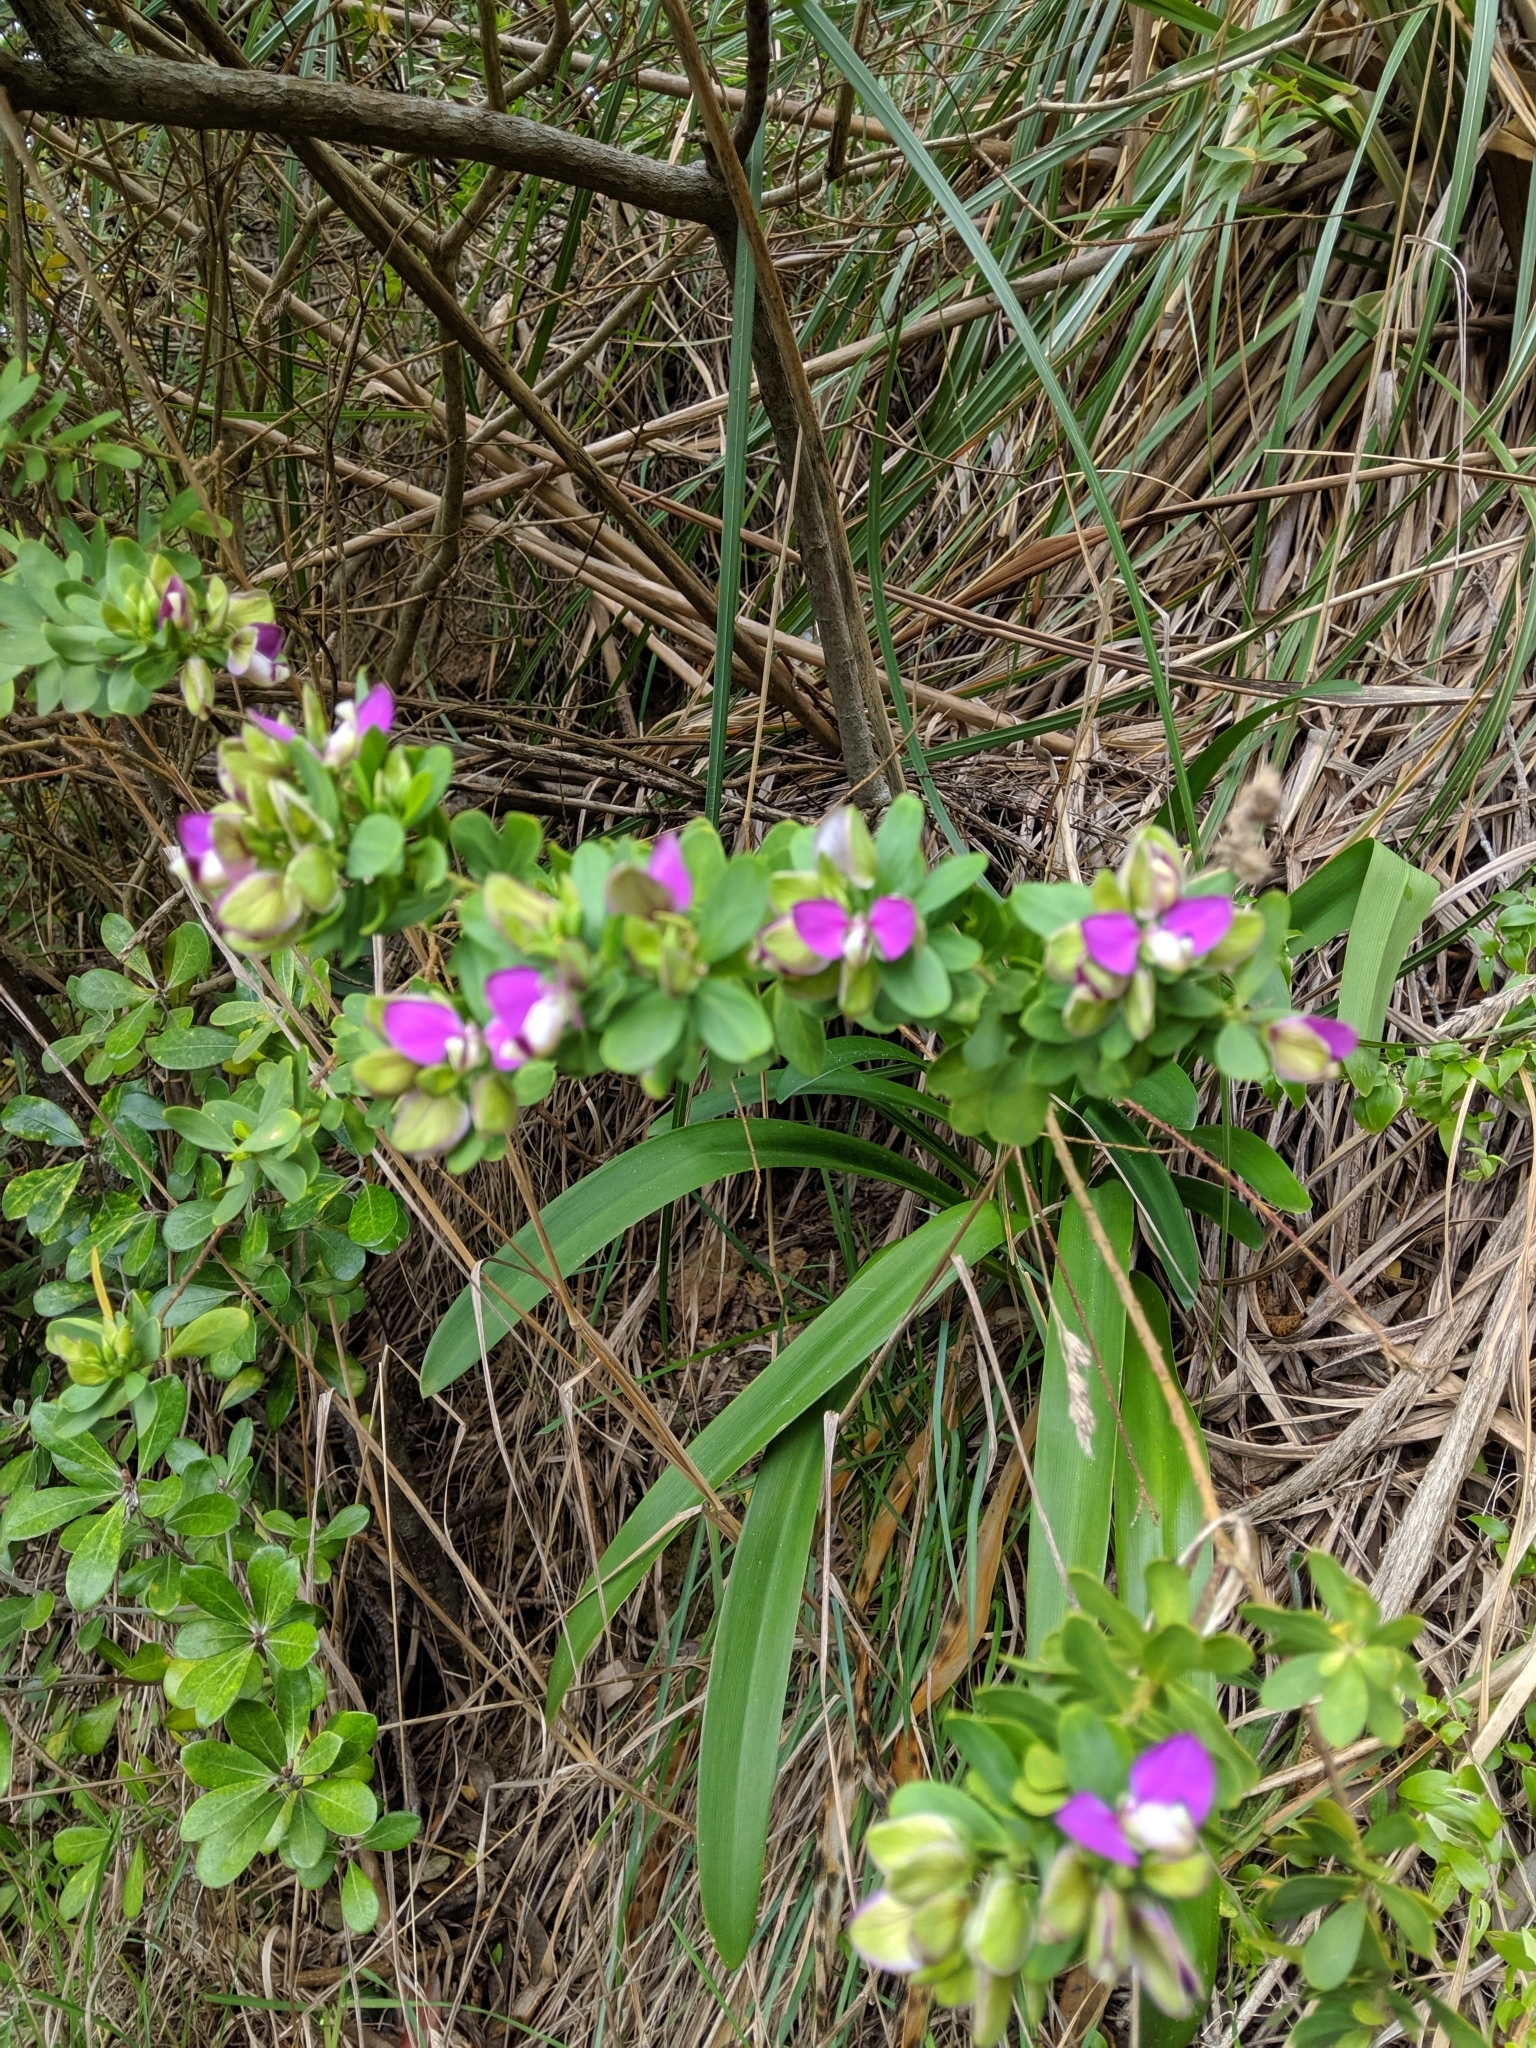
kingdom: Plantae
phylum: Tracheophyta
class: Magnoliopsida
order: Fabales
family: Polygalaceae
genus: Polygala
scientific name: Polygala myrtifolia
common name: Myrtle-leaf milkwort
